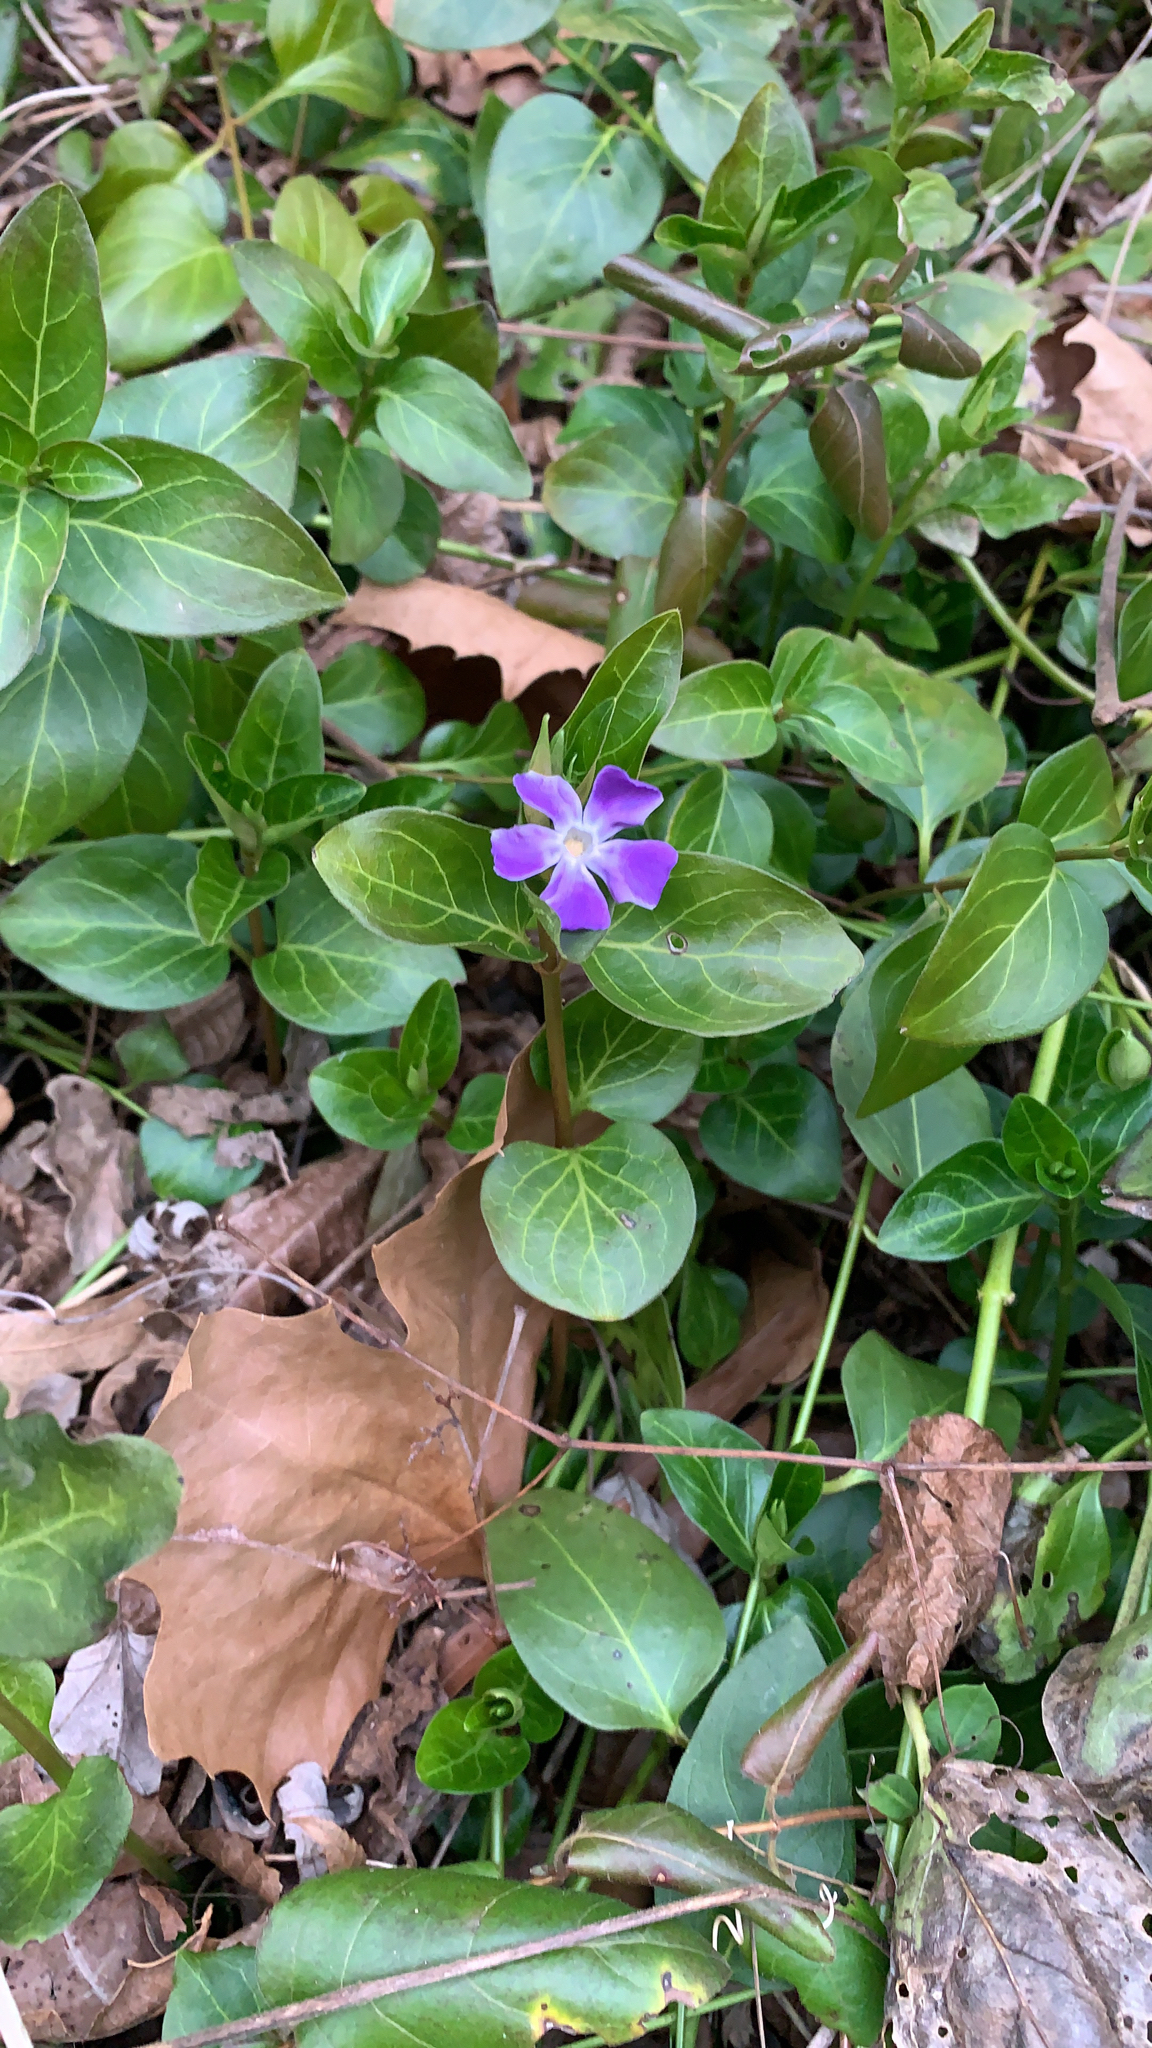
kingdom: Plantae
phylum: Tracheophyta
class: Magnoliopsida
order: Gentianales
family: Apocynaceae
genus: Vinca
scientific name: Vinca major
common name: Greater periwinkle
